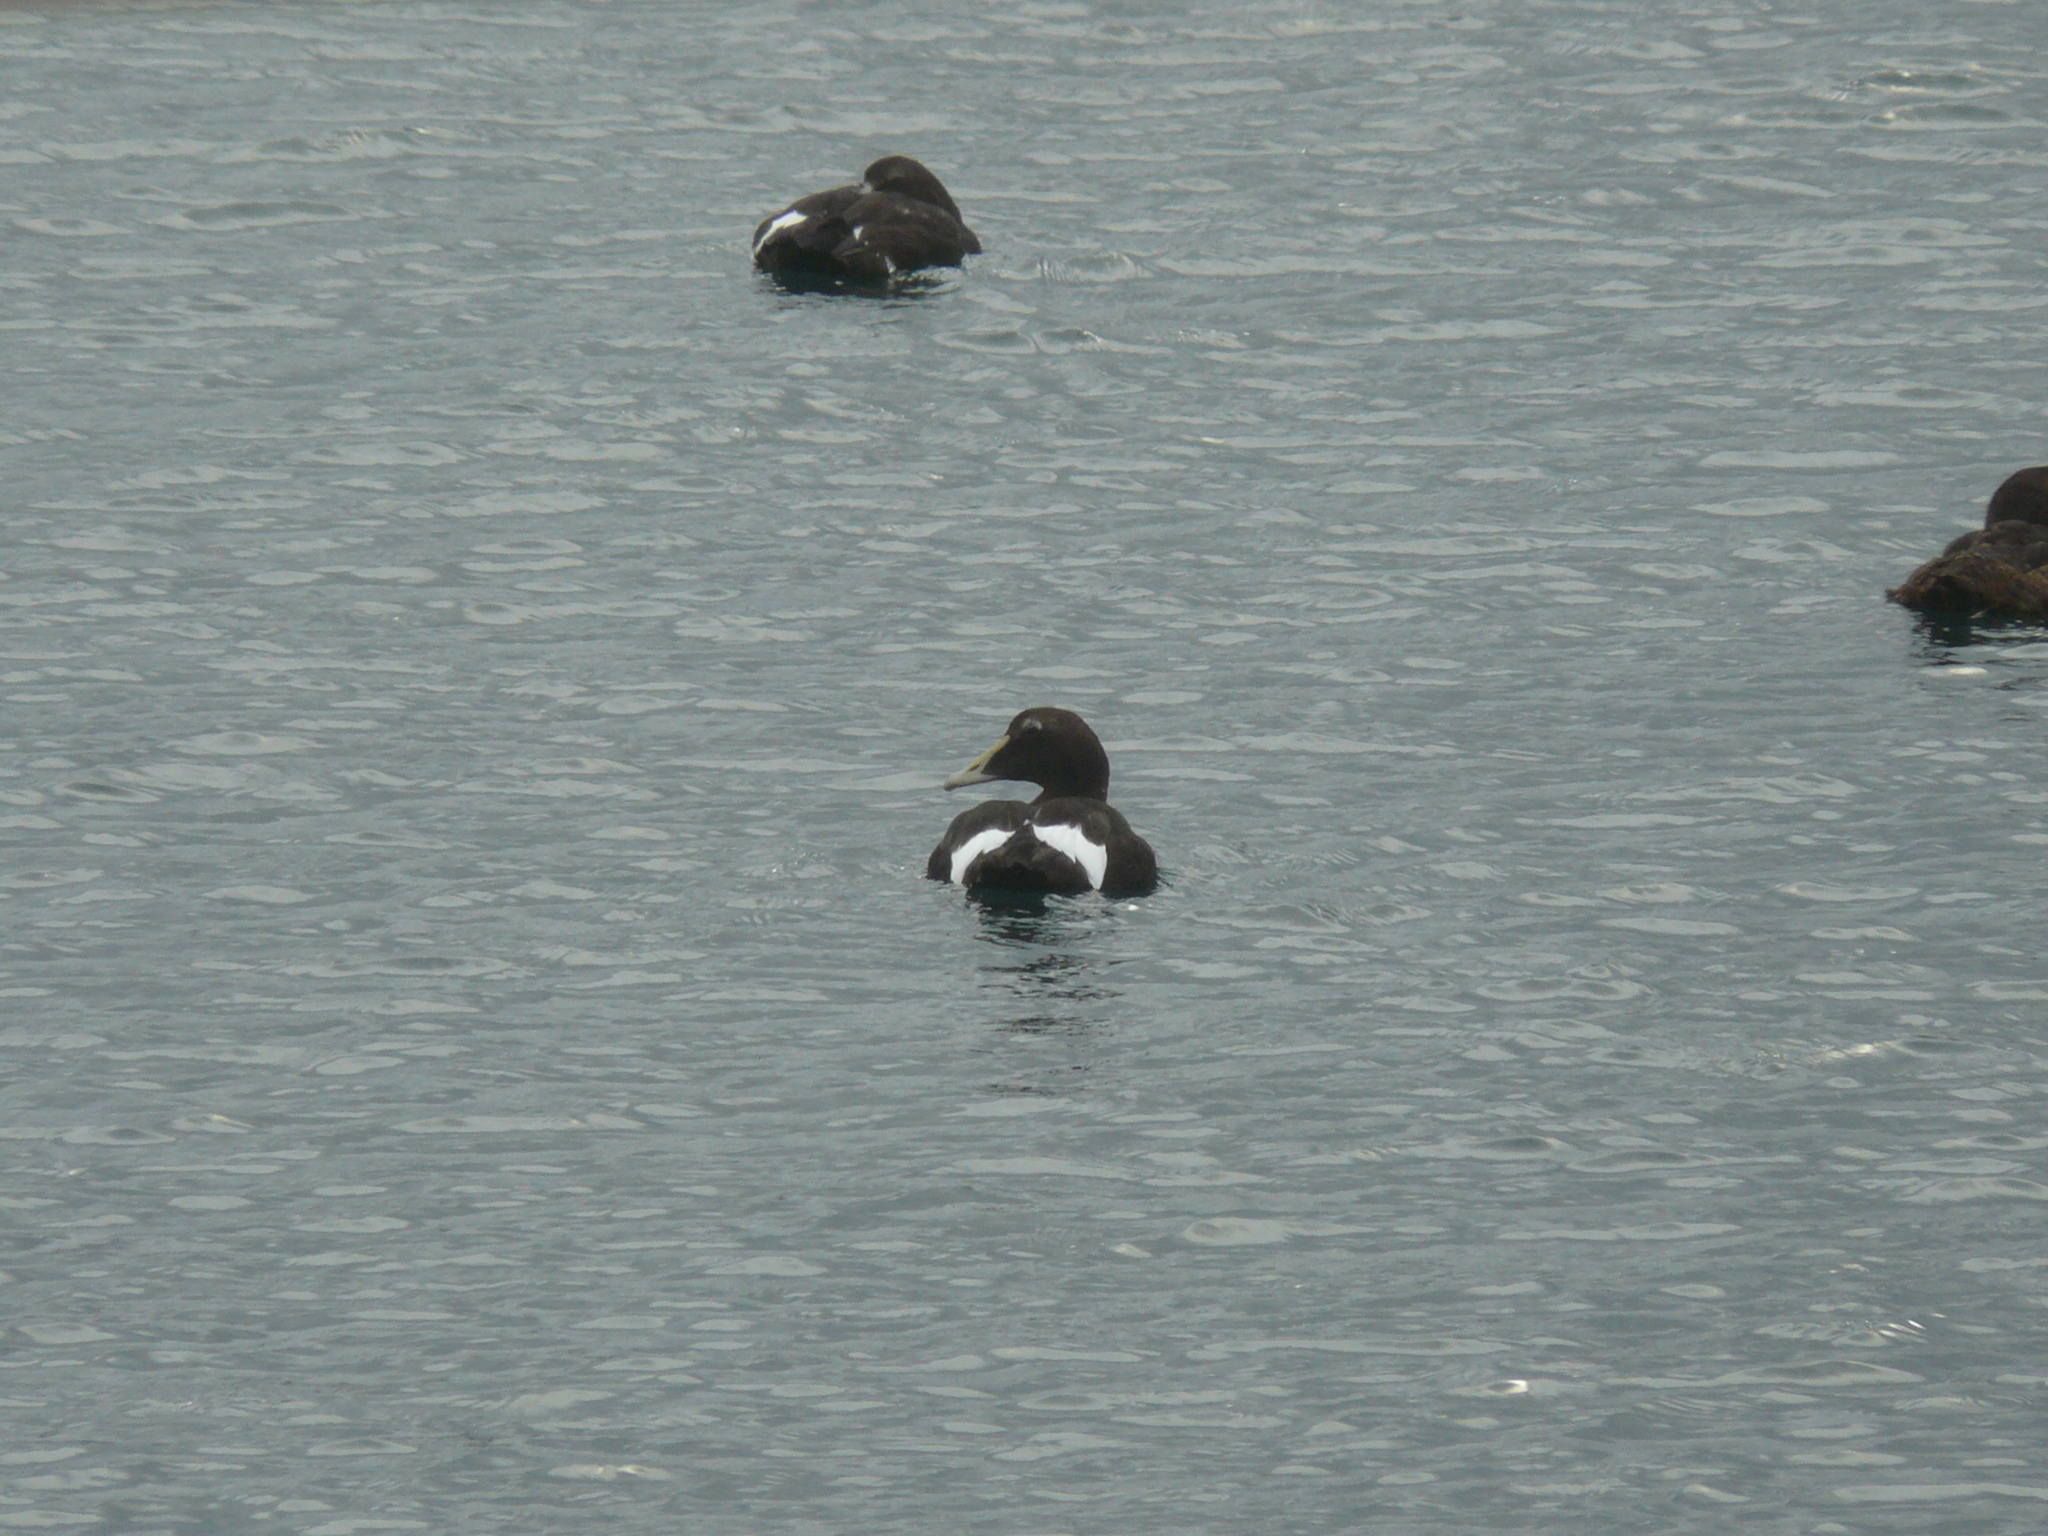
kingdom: Animalia
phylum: Chordata
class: Aves
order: Anseriformes
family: Anatidae
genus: Somateria
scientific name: Somateria mollissima
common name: Common eider
